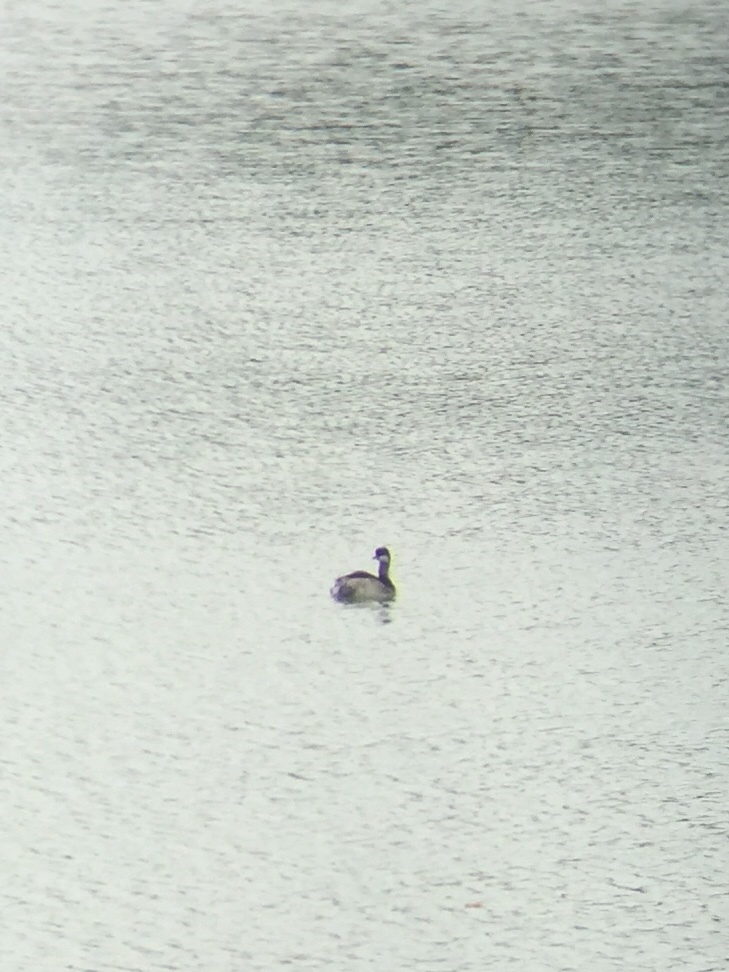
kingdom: Animalia
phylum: Chordata
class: Aves
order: Podicipediformes
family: Podicipedidae
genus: Podiceps
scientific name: Podiceps nigricollis
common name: Black-necked grebe
